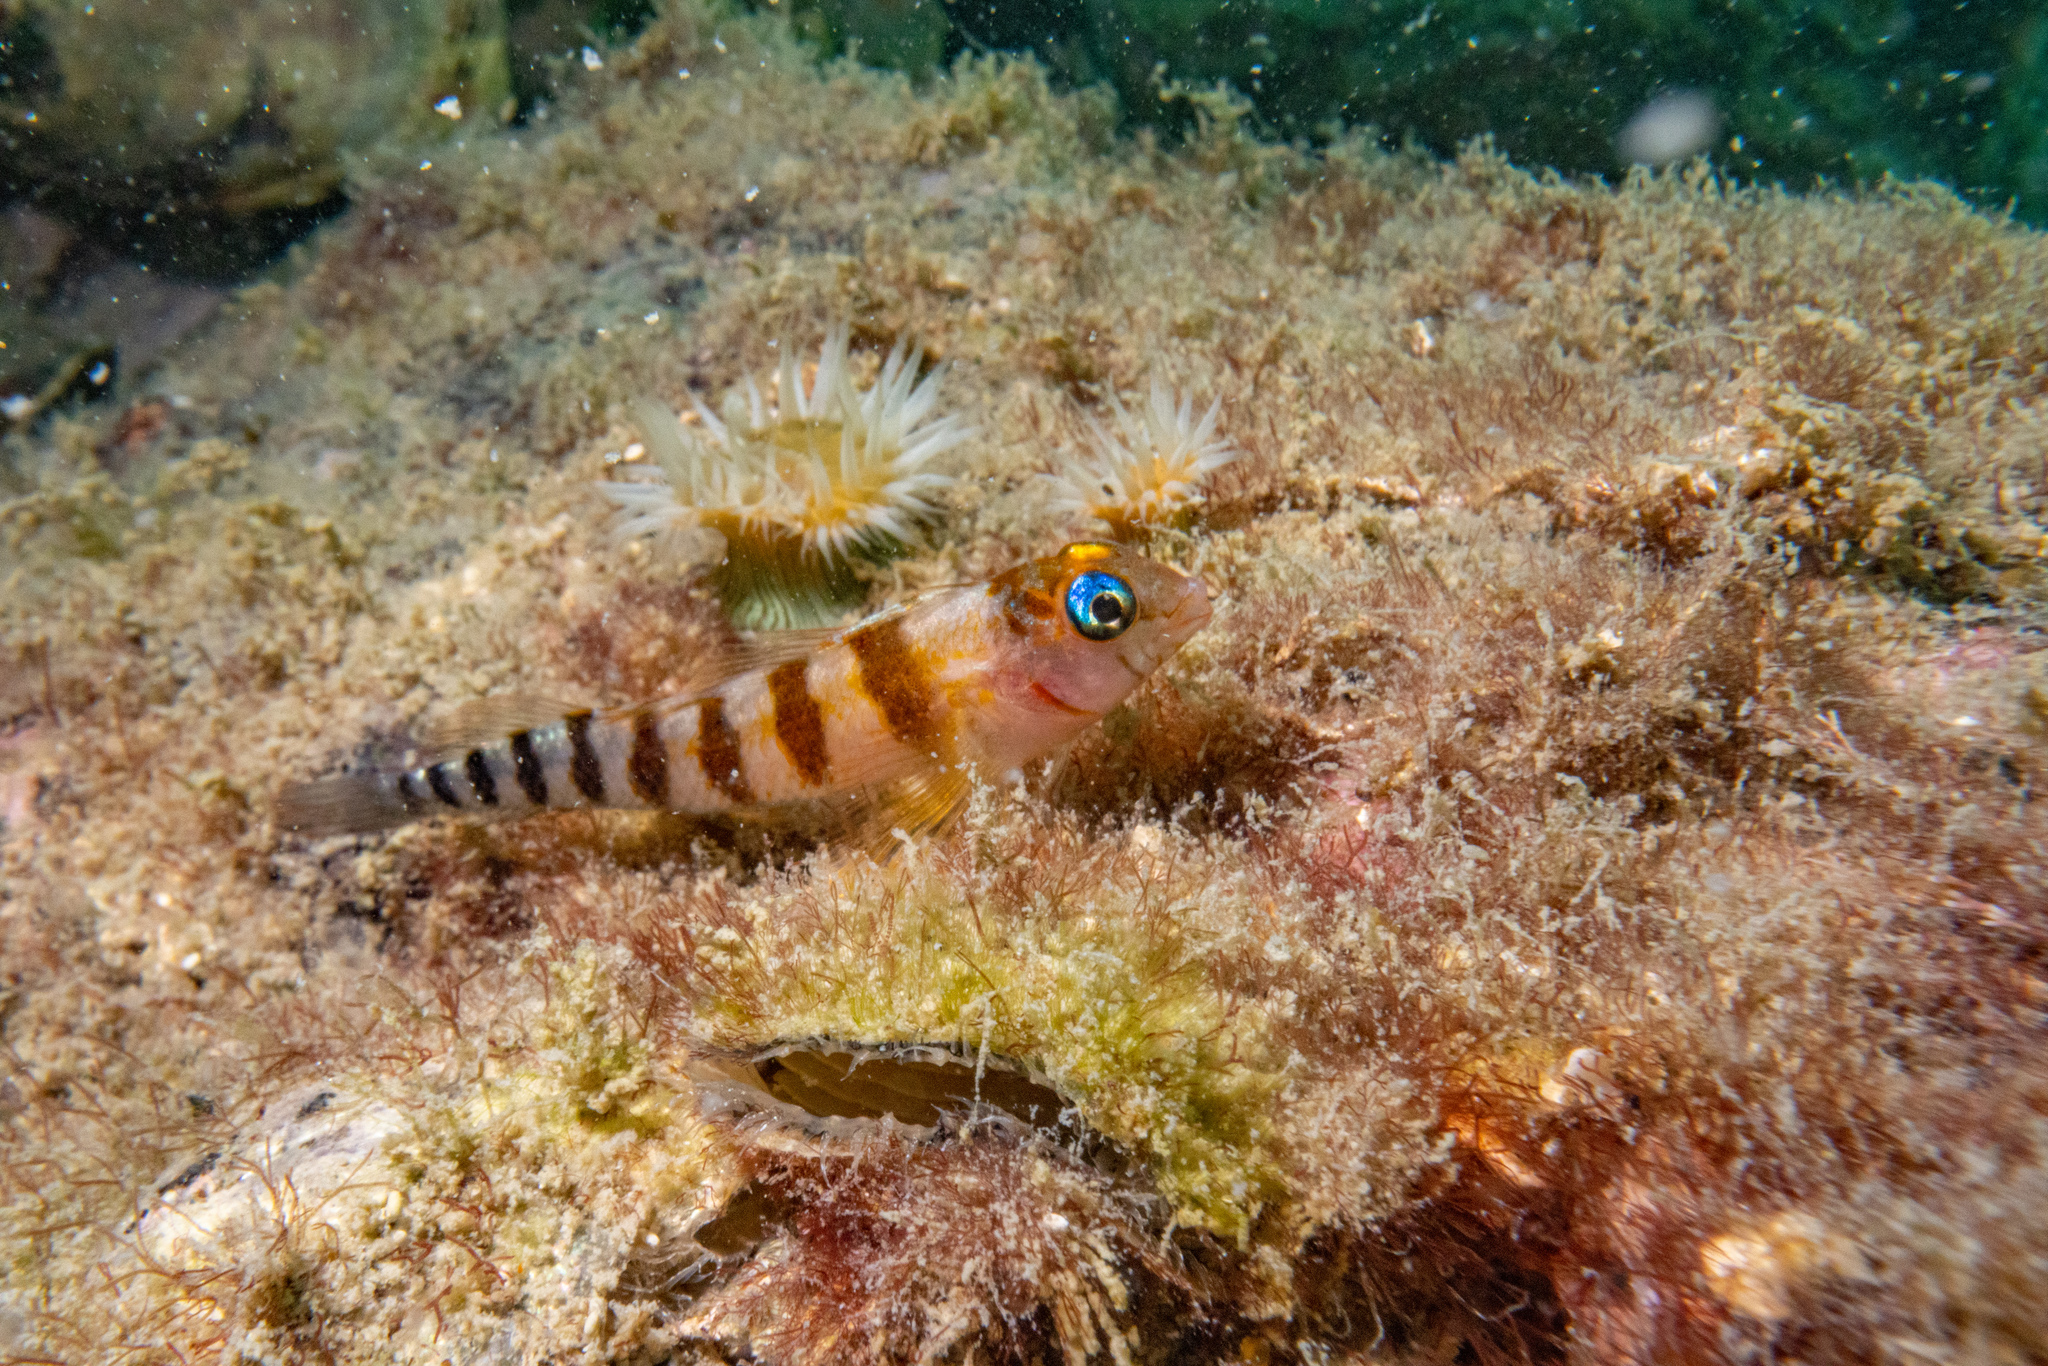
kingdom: Animalia
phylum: Chordata
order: Perciformes
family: Tripterygiidae
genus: Notoclinops
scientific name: Notoclinops segmentatus
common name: Blue-eyed triplefin
